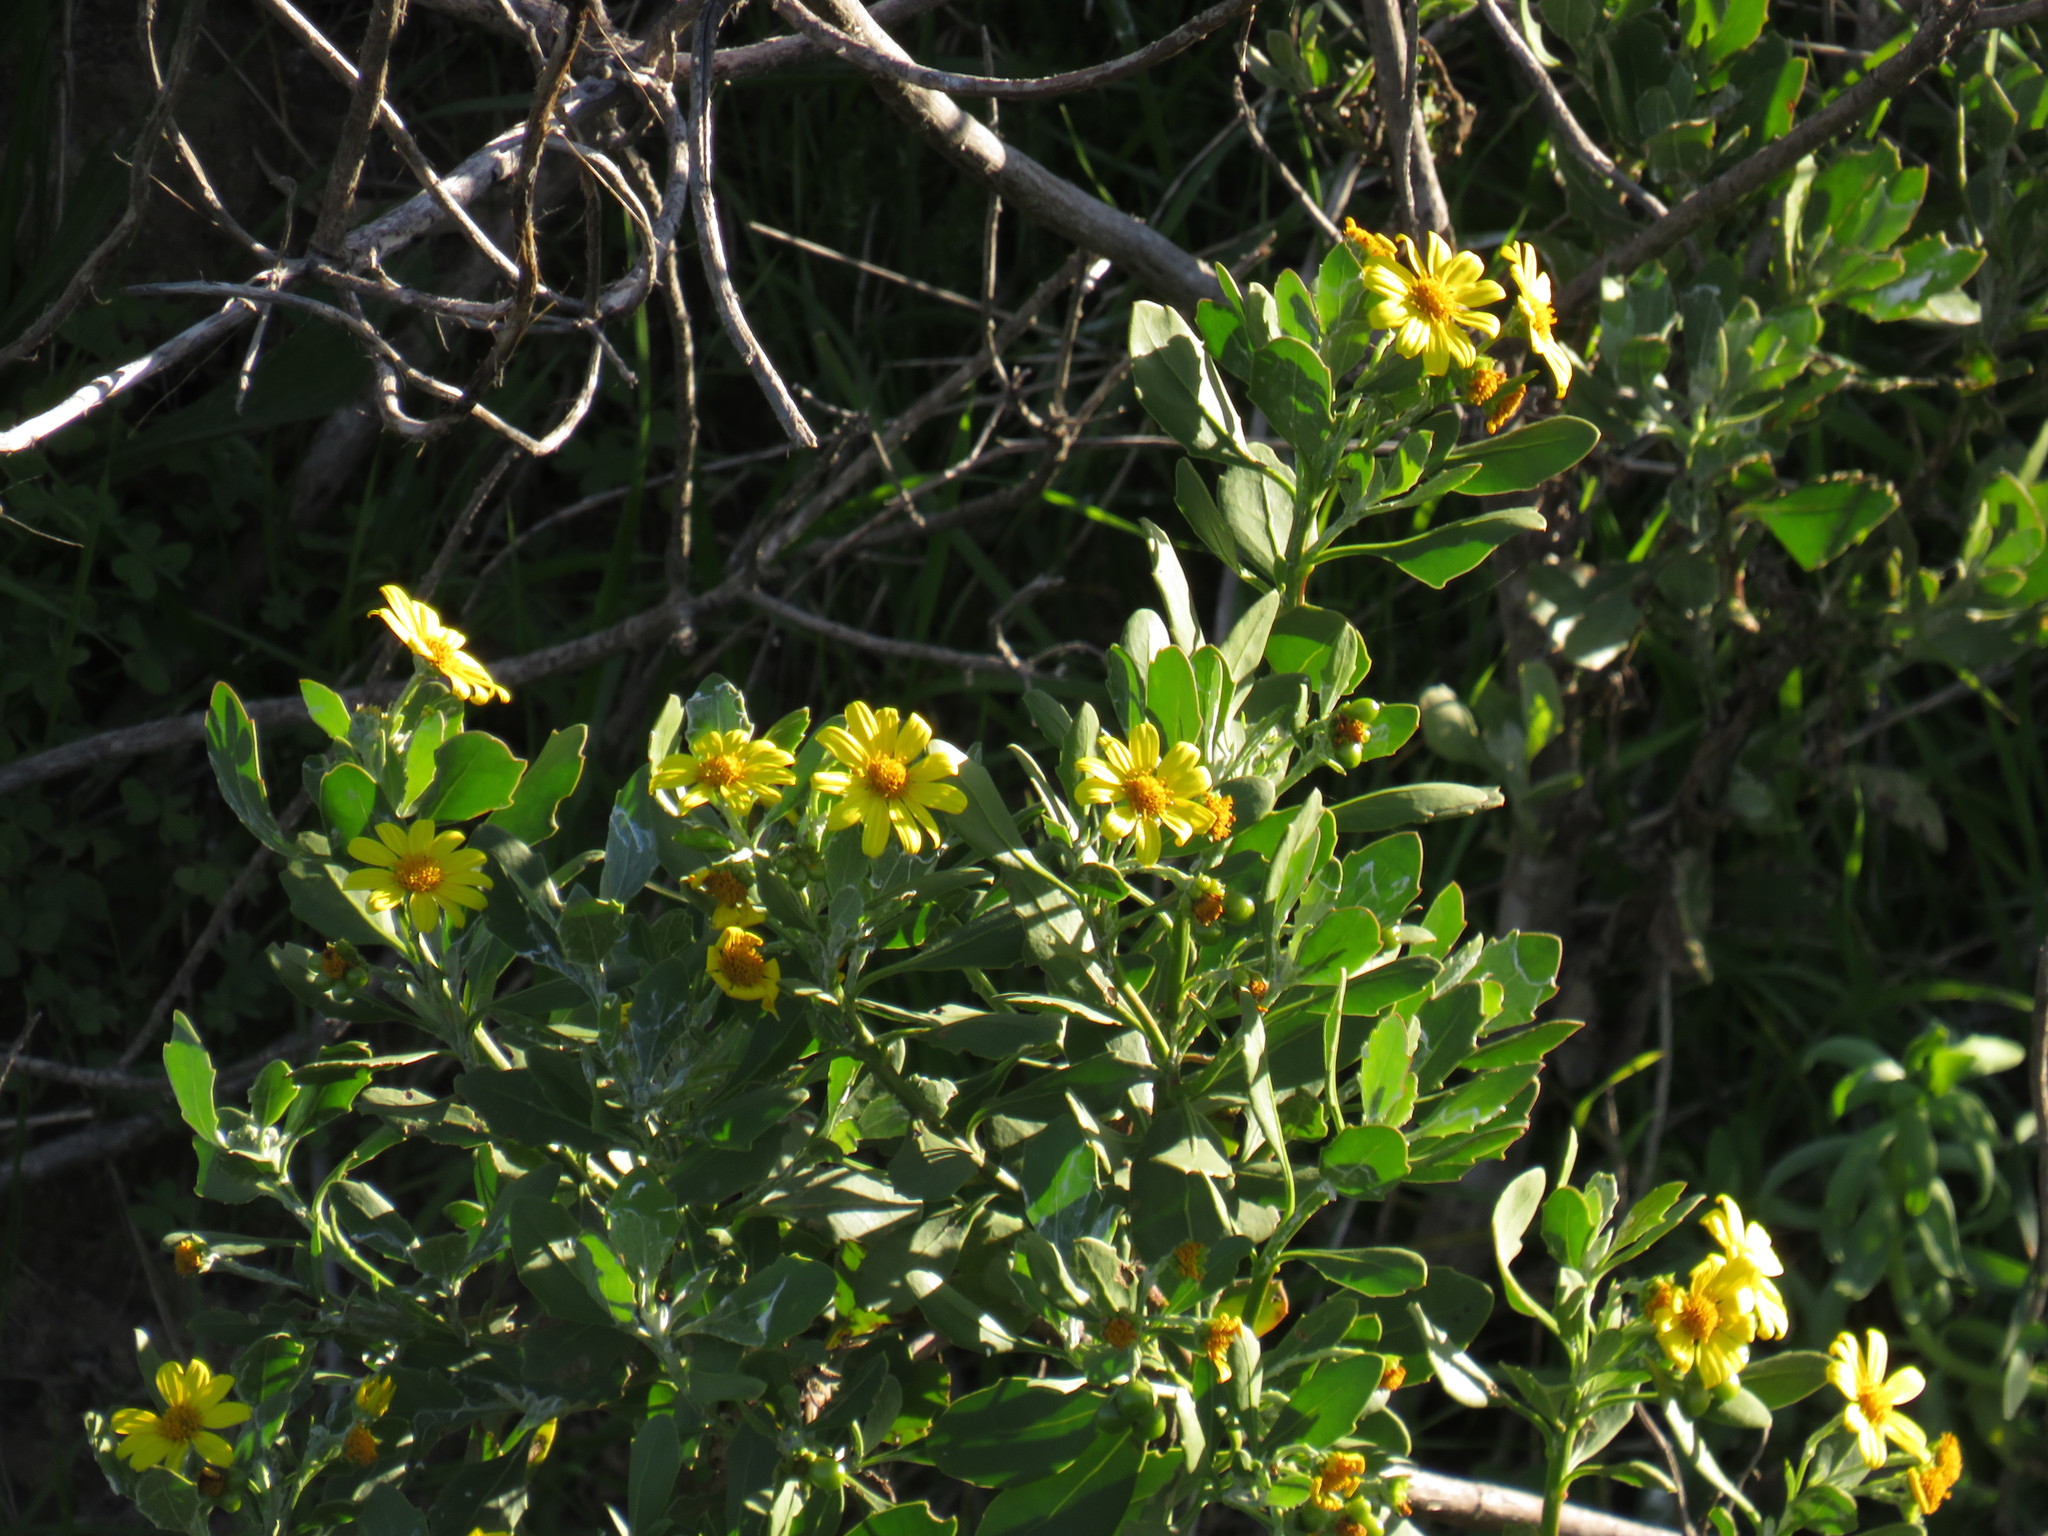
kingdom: Plantae
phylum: Tracheophyta
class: Magnoliopsida
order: Asterales
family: Asteraceae
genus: Osteospermum
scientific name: Osteospermum moniliferum
